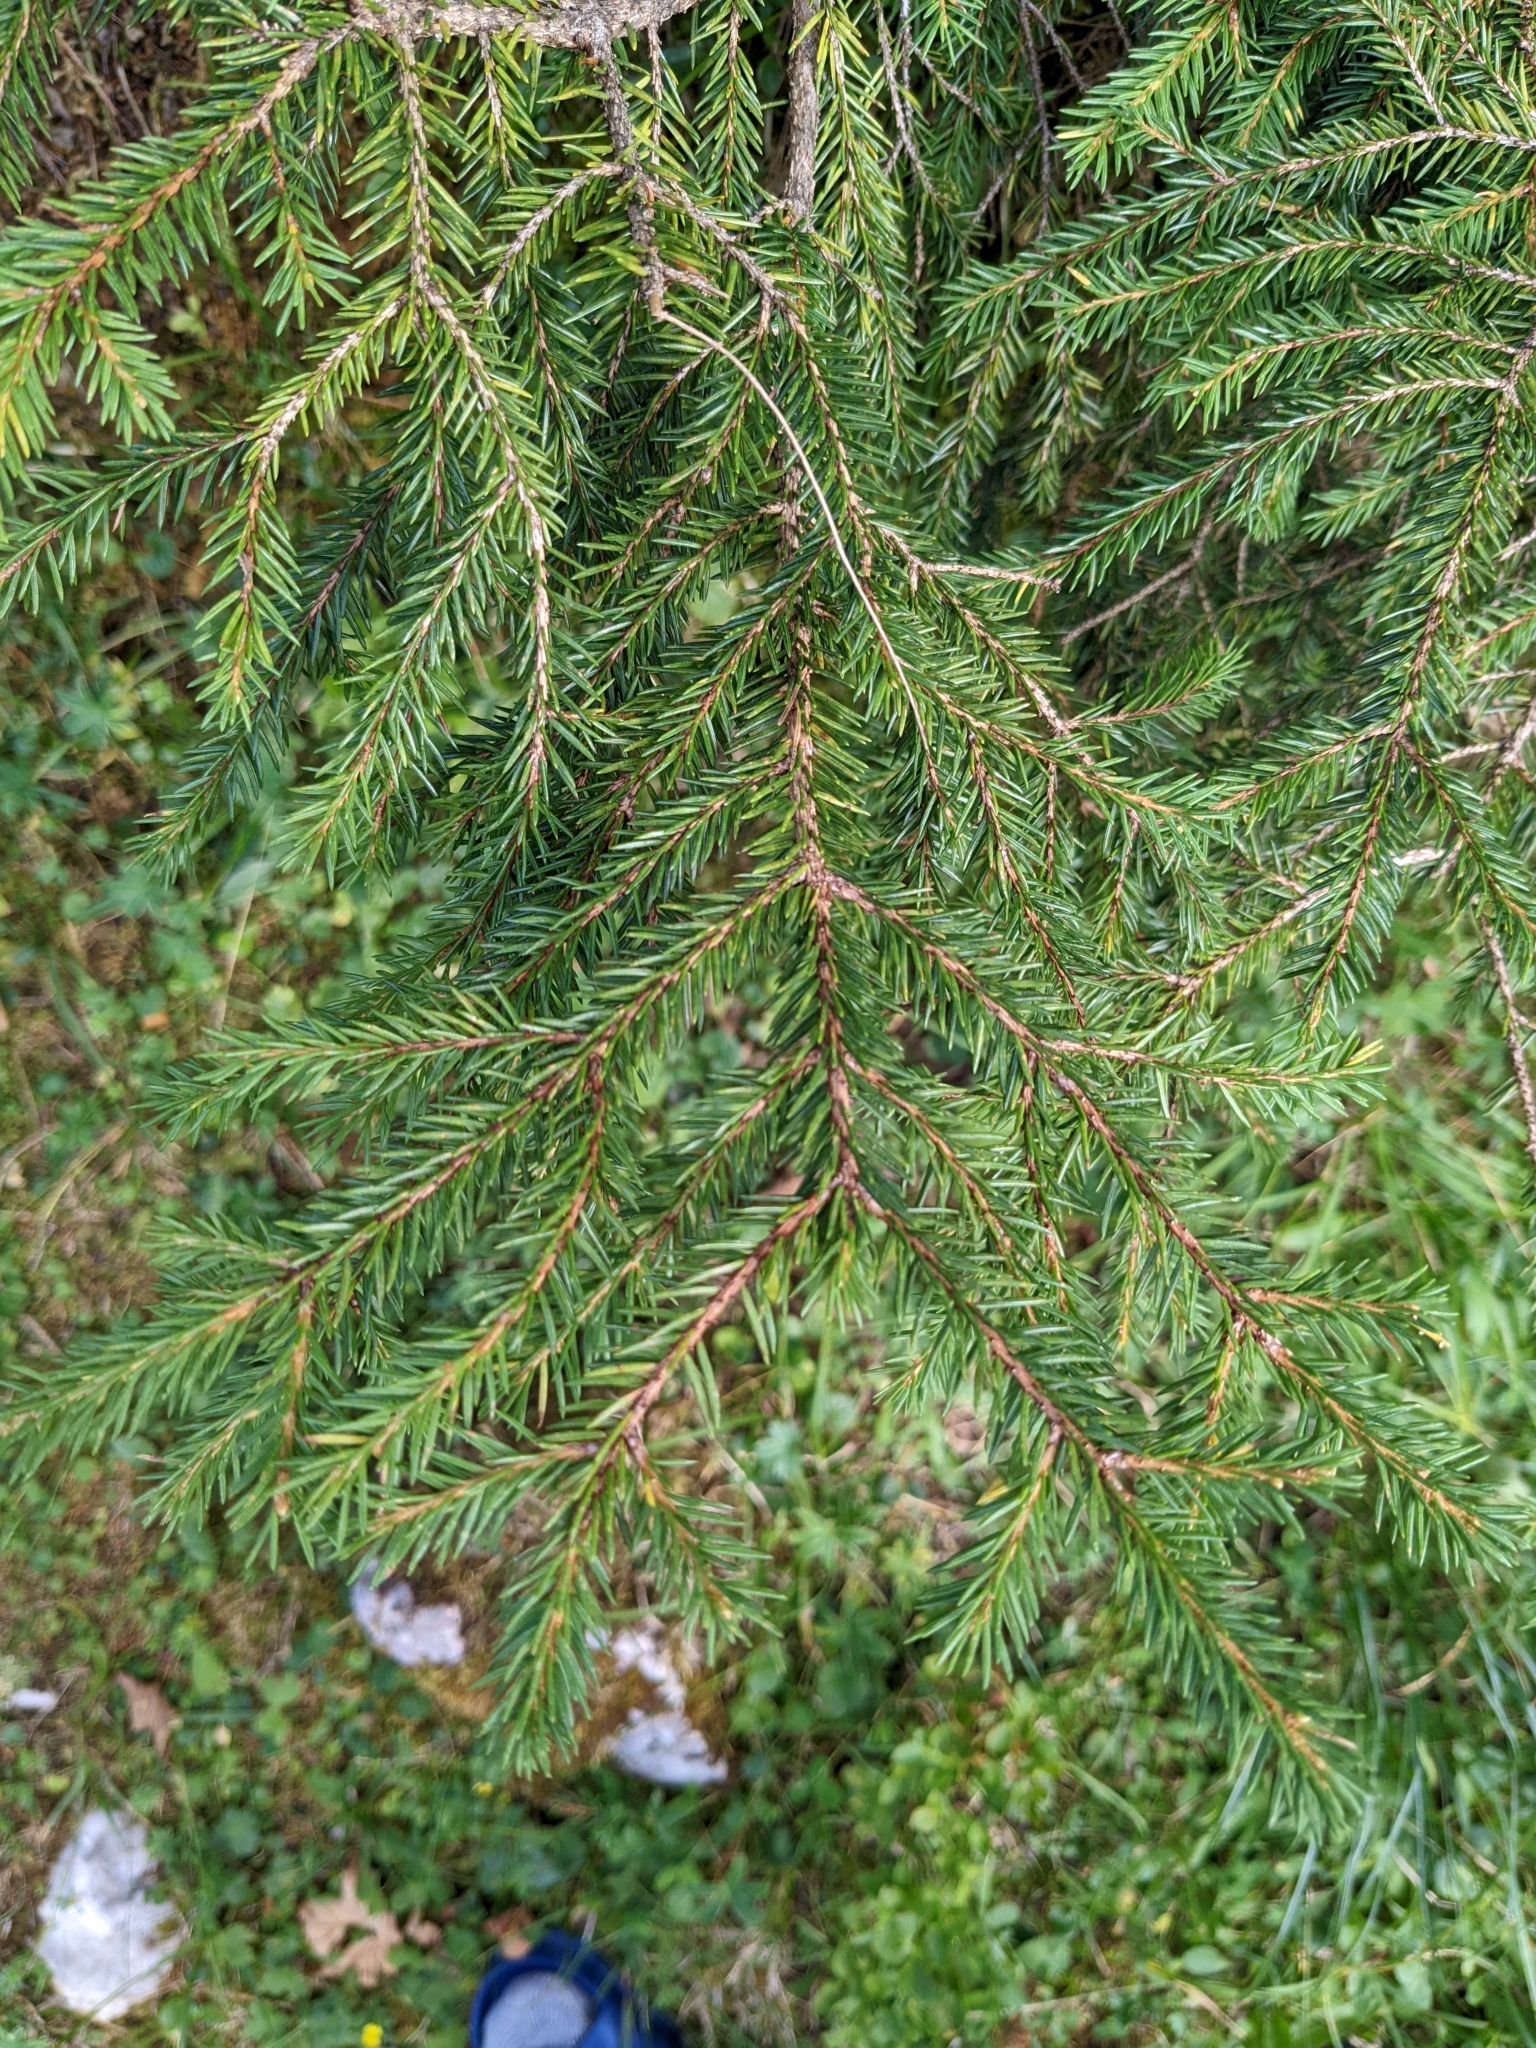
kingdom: Plantae
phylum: Tracheophyta
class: Pinopsida
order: Pinales
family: Pinaceae
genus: Picea
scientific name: Picea abies
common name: Norway spruce
